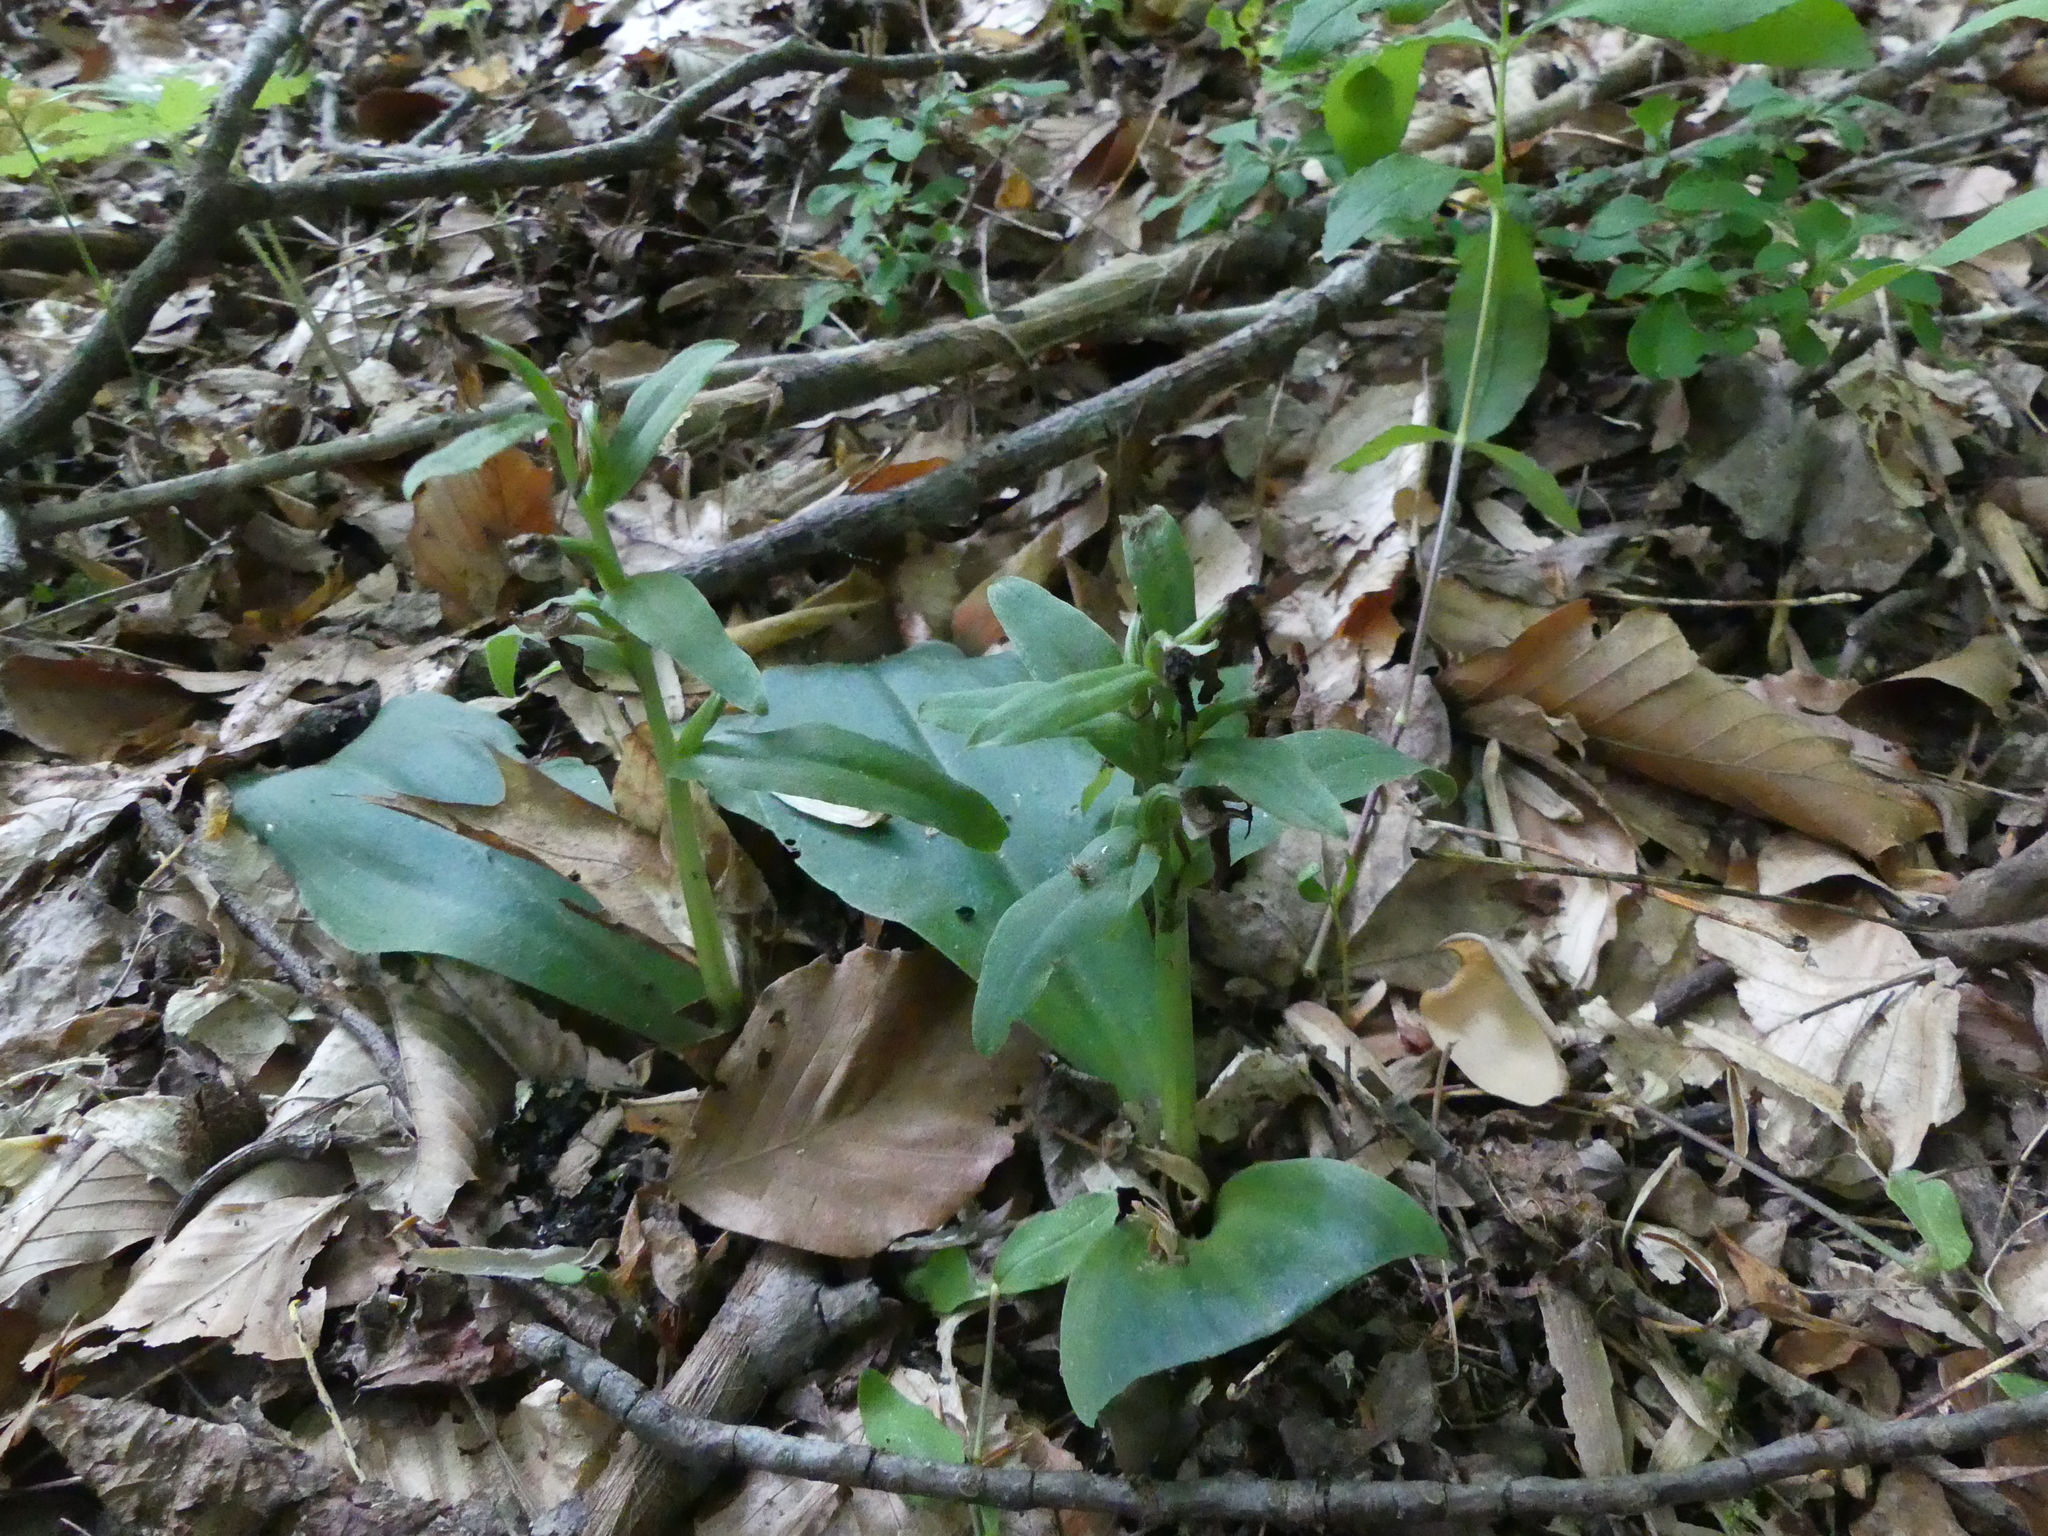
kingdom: Plantae
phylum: Tracheophyta
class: Liliopsida
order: Asparagales
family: Orchidaceae
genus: Galearis
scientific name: Galearis spectabilis
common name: Purple-hooded orchis
